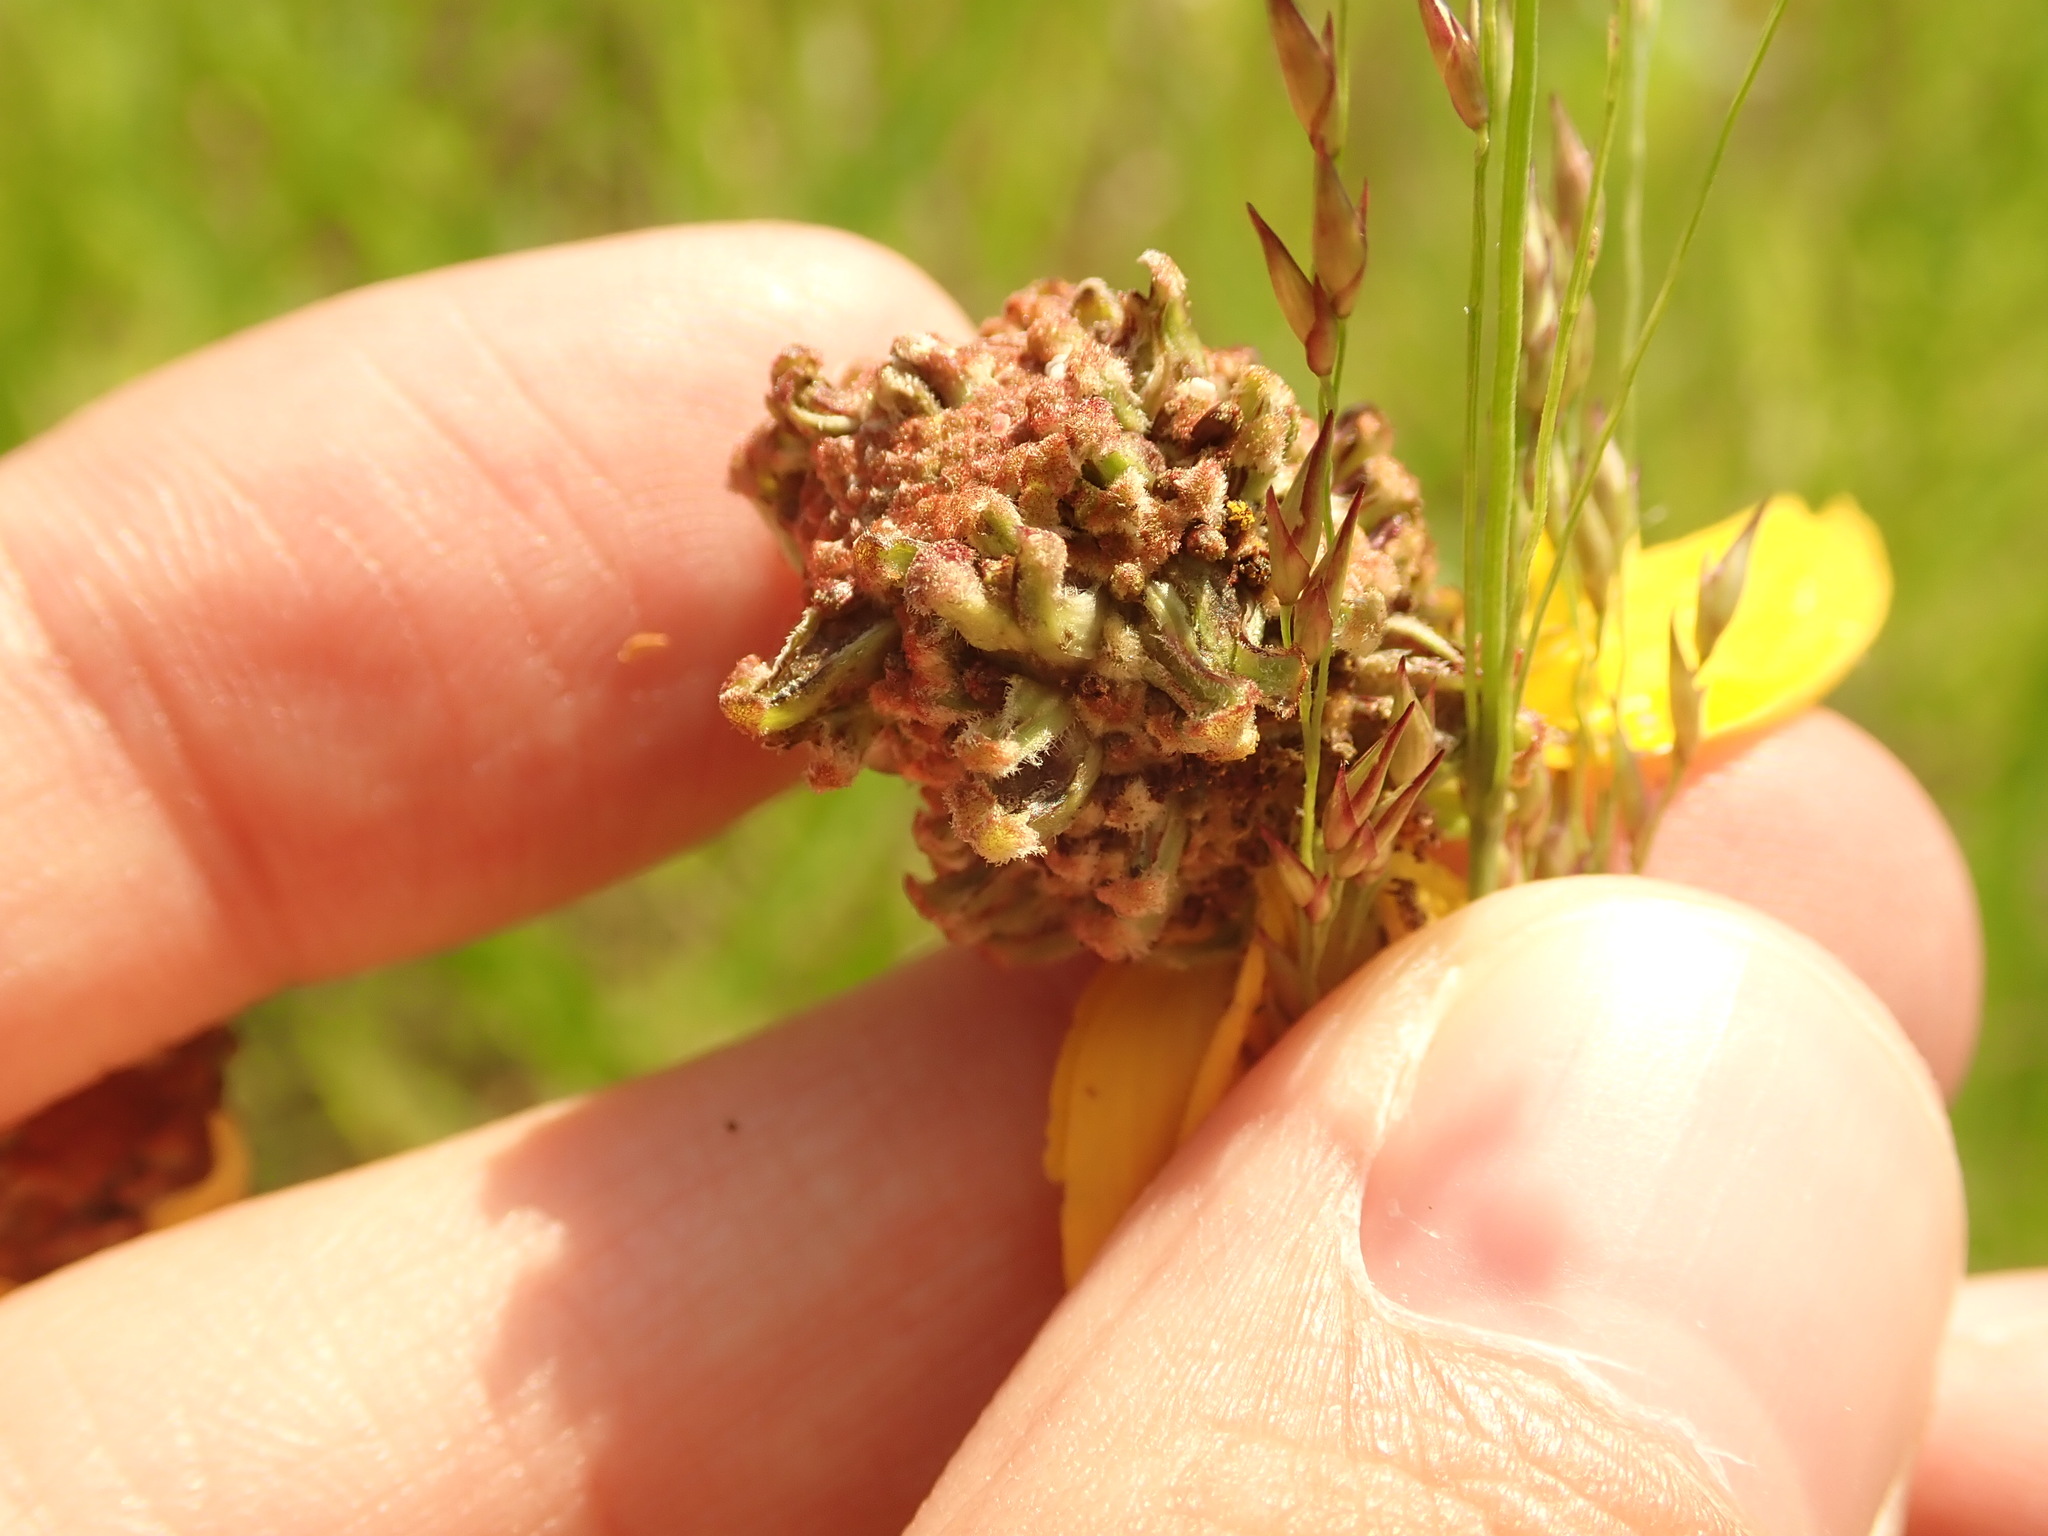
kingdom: Animalia
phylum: Arthropoda
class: Insecta
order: Diptera
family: Cecidomyiidae
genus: Asphondylia
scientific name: Asphondylia ratibidae
